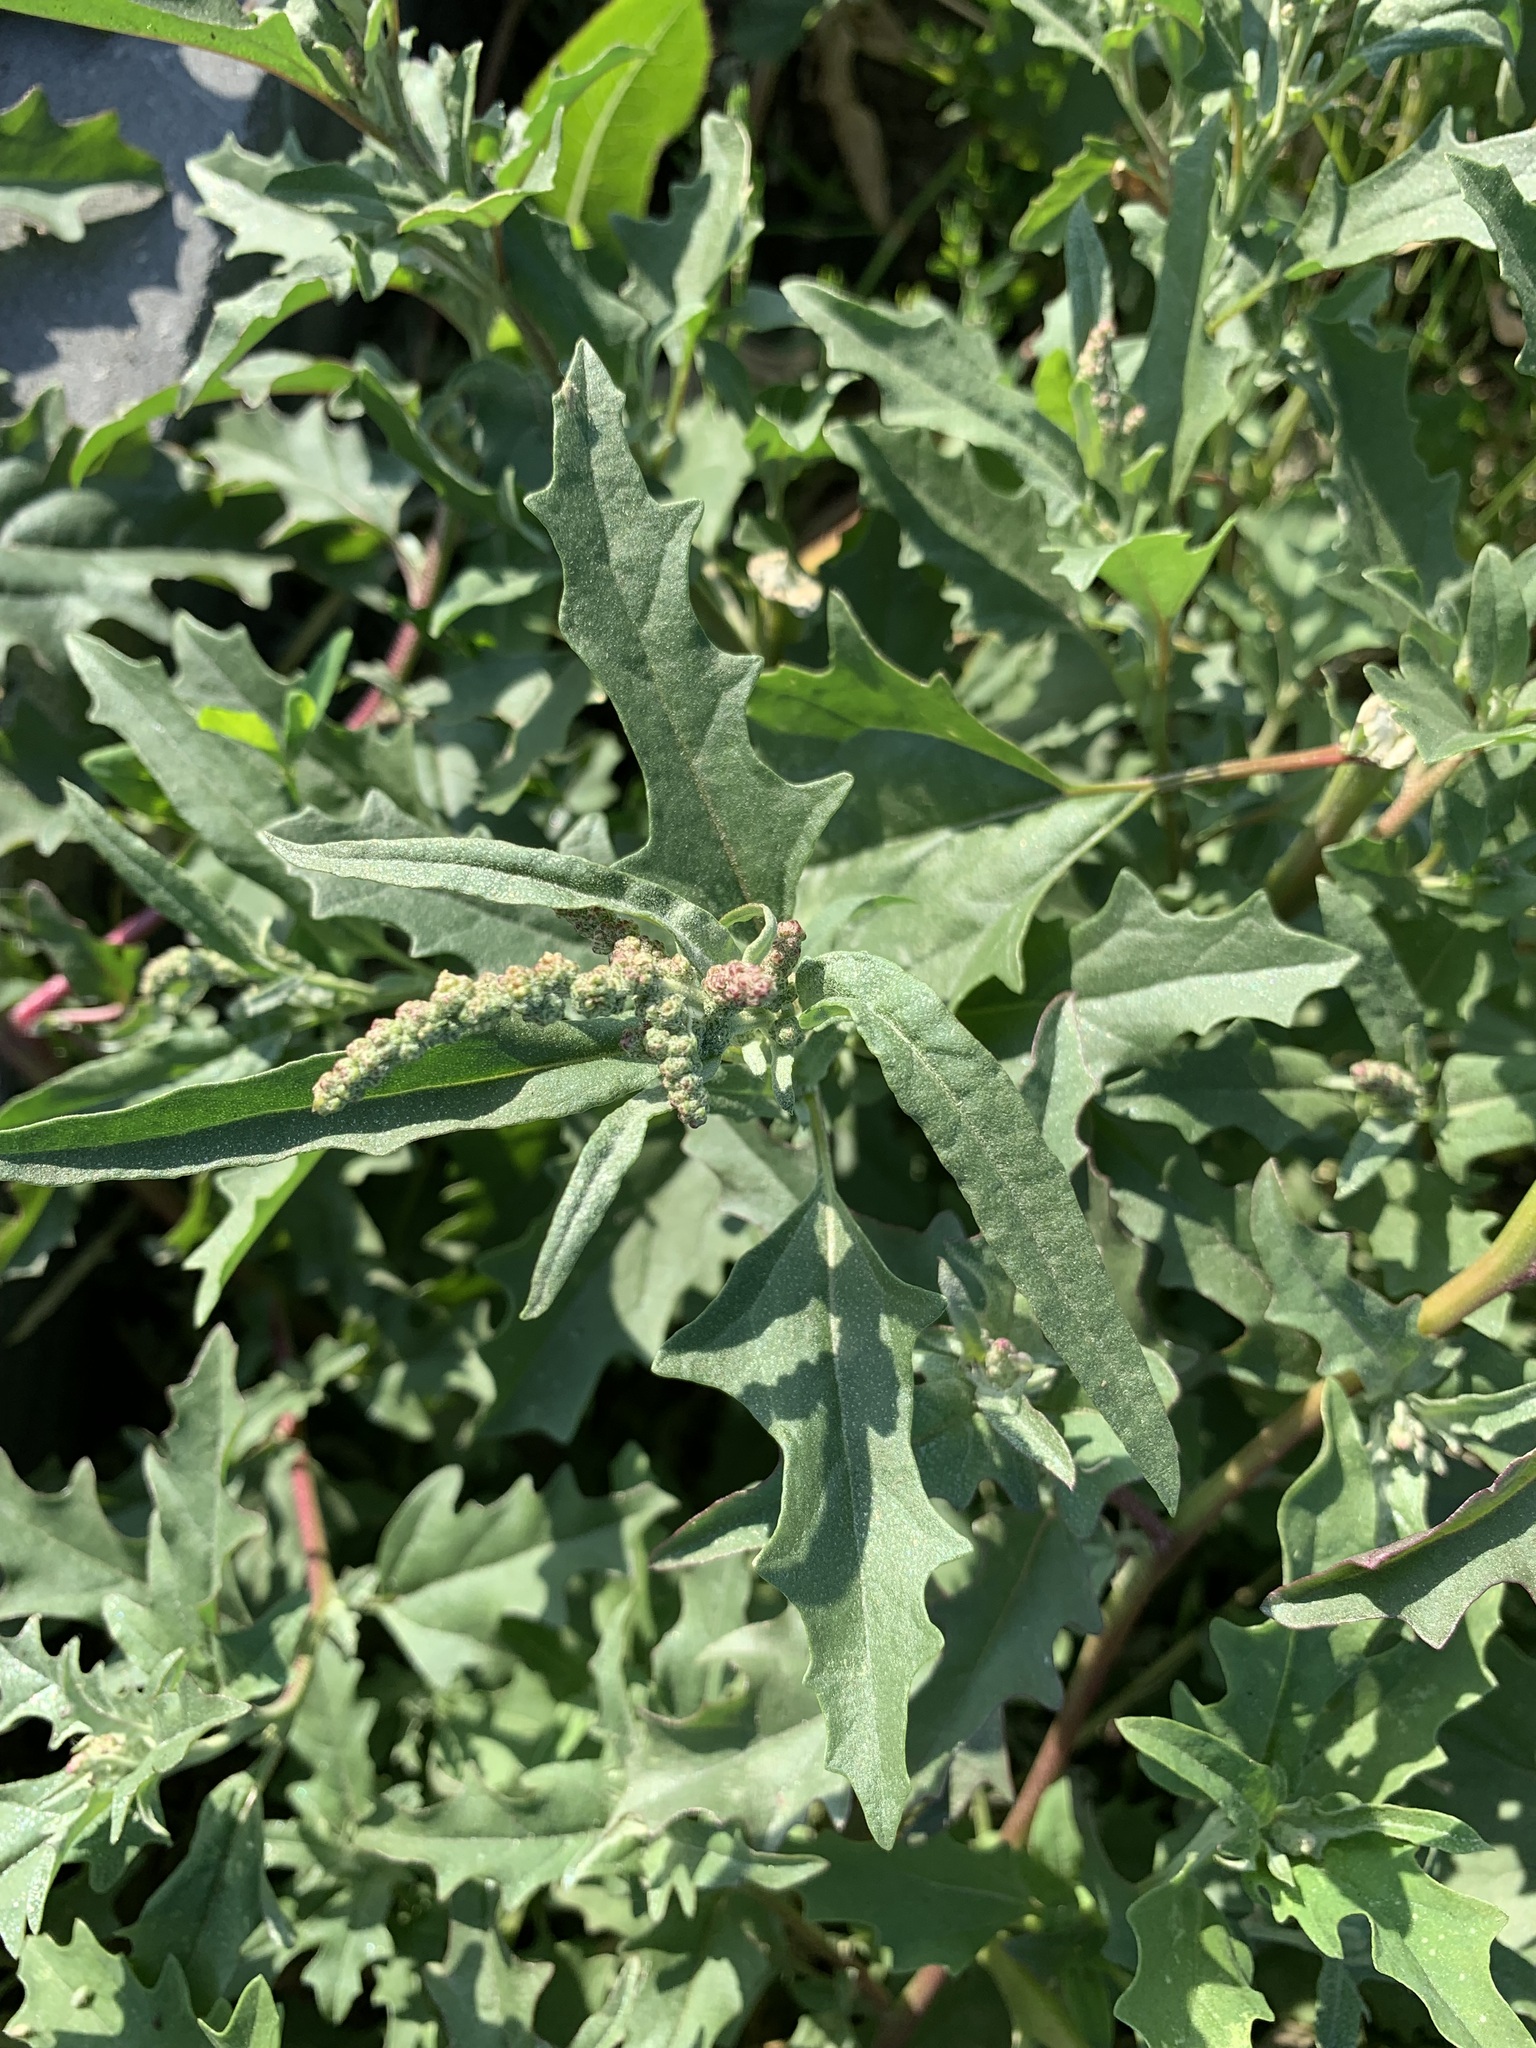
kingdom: Plantae
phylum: Tracheophyta
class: Magnoliopsida
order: Caryophyllales
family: Amaranthaceae
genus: Atriplex
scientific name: Atriplex tatarica
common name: Tatarian orache
